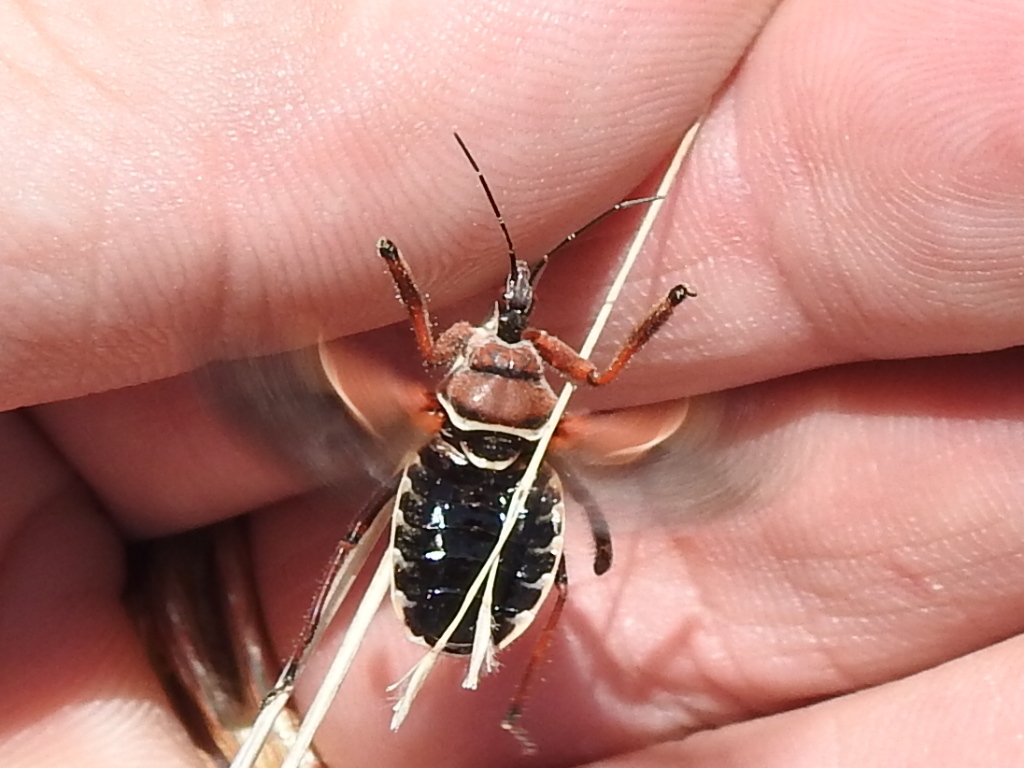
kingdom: Animalia
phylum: Arthropoda
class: Insecta
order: Hemiptera
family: Reduviidae
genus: Apiomerus
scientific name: Apiomerus spissipes
